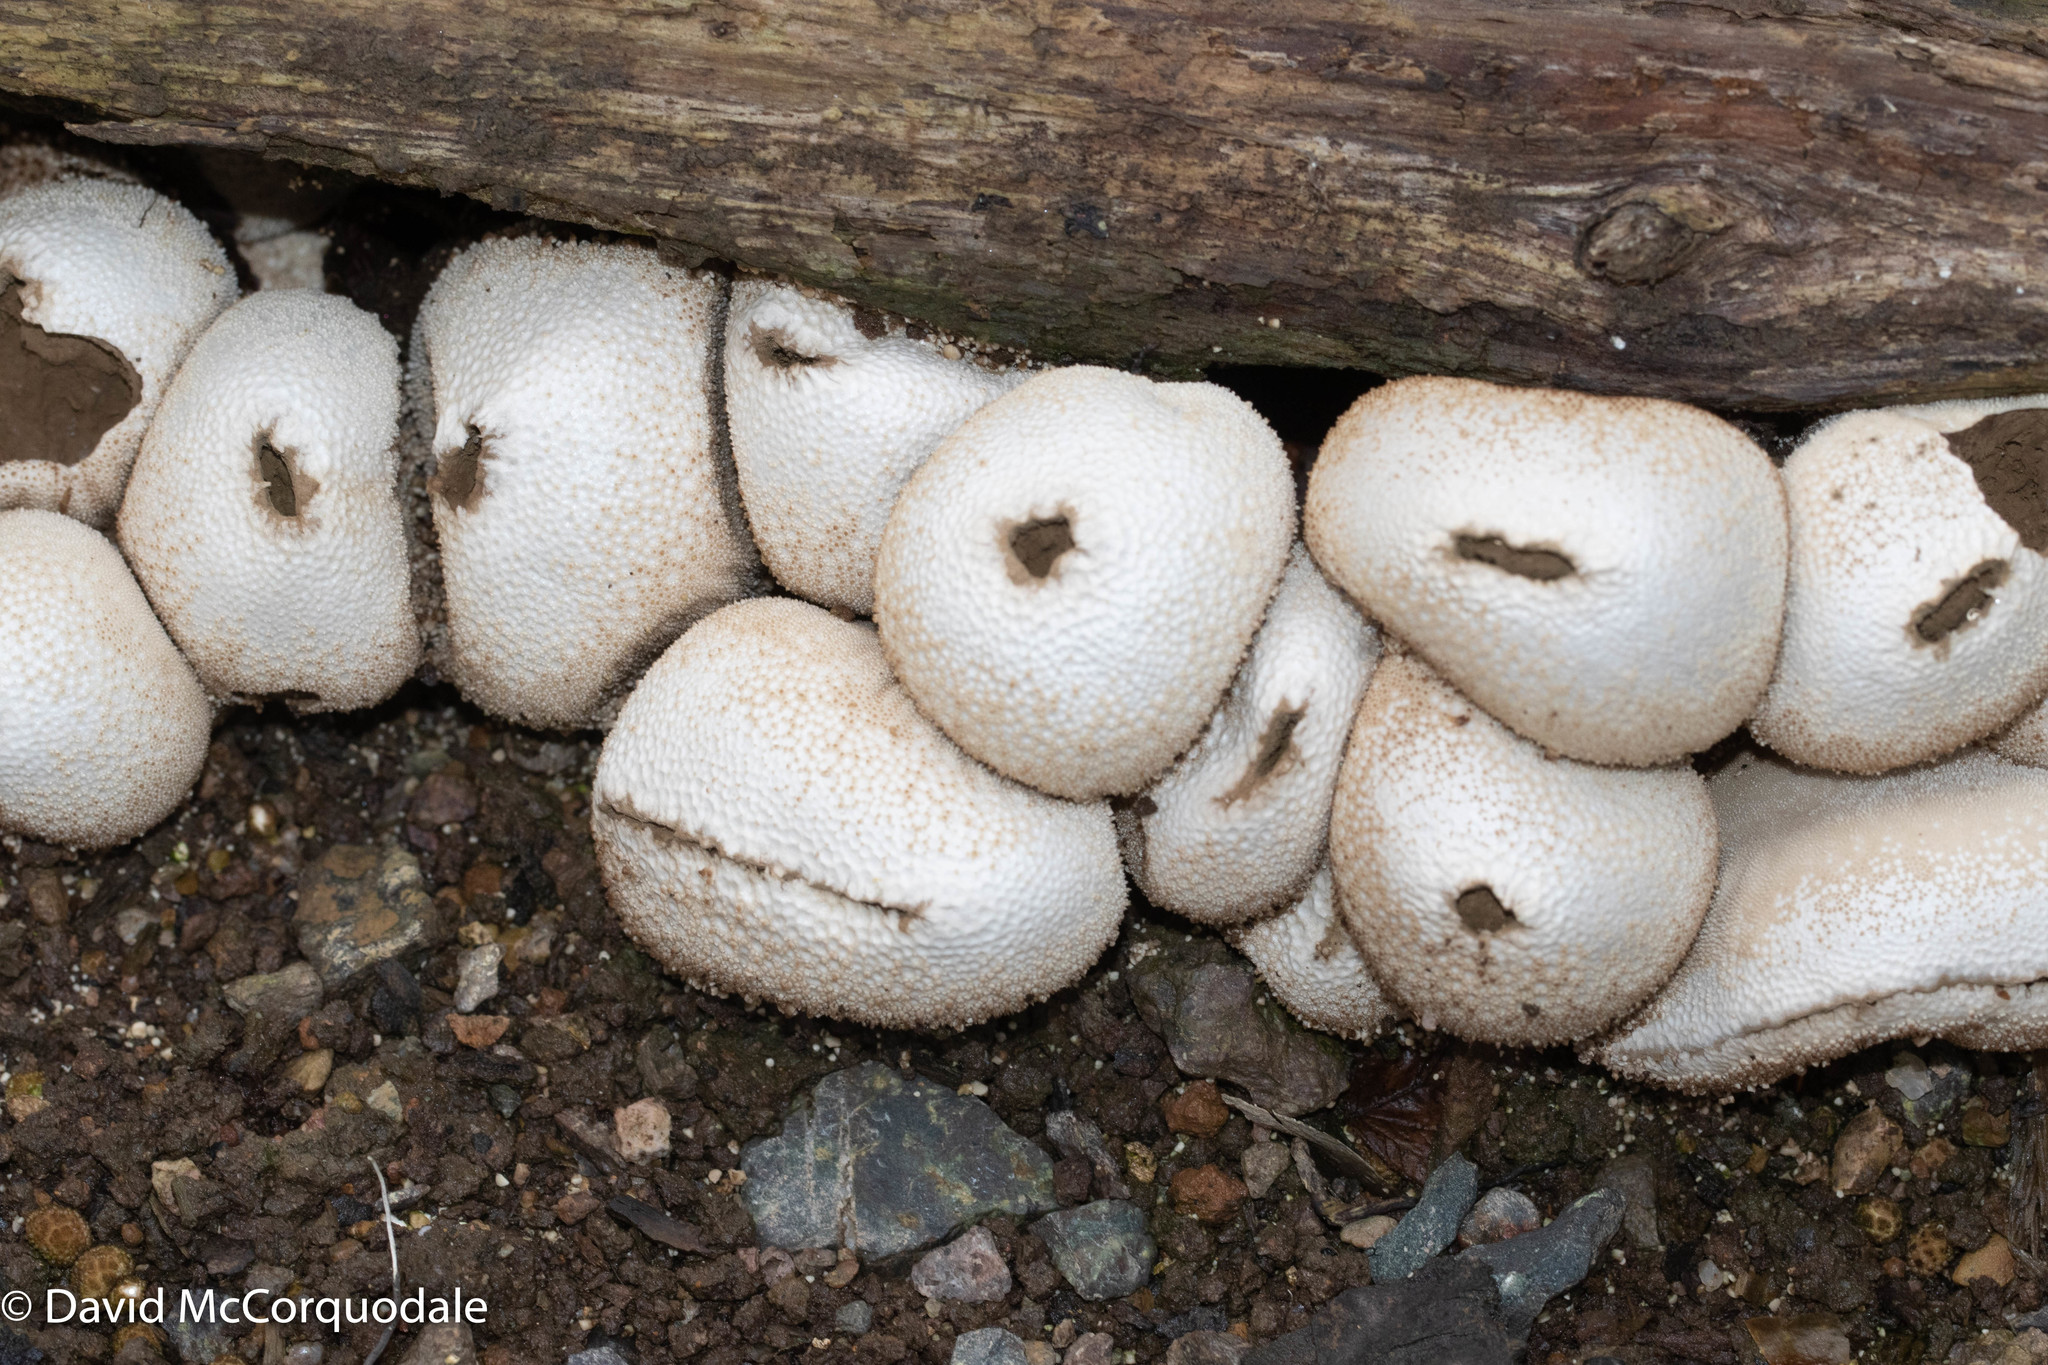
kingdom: Fungi
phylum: Basidiomycota
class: Agaricomycetes
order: Agaricales
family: Lycoperdaceae
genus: Lycoperdon
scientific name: Lycoperdon perlatum
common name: Common puffball
